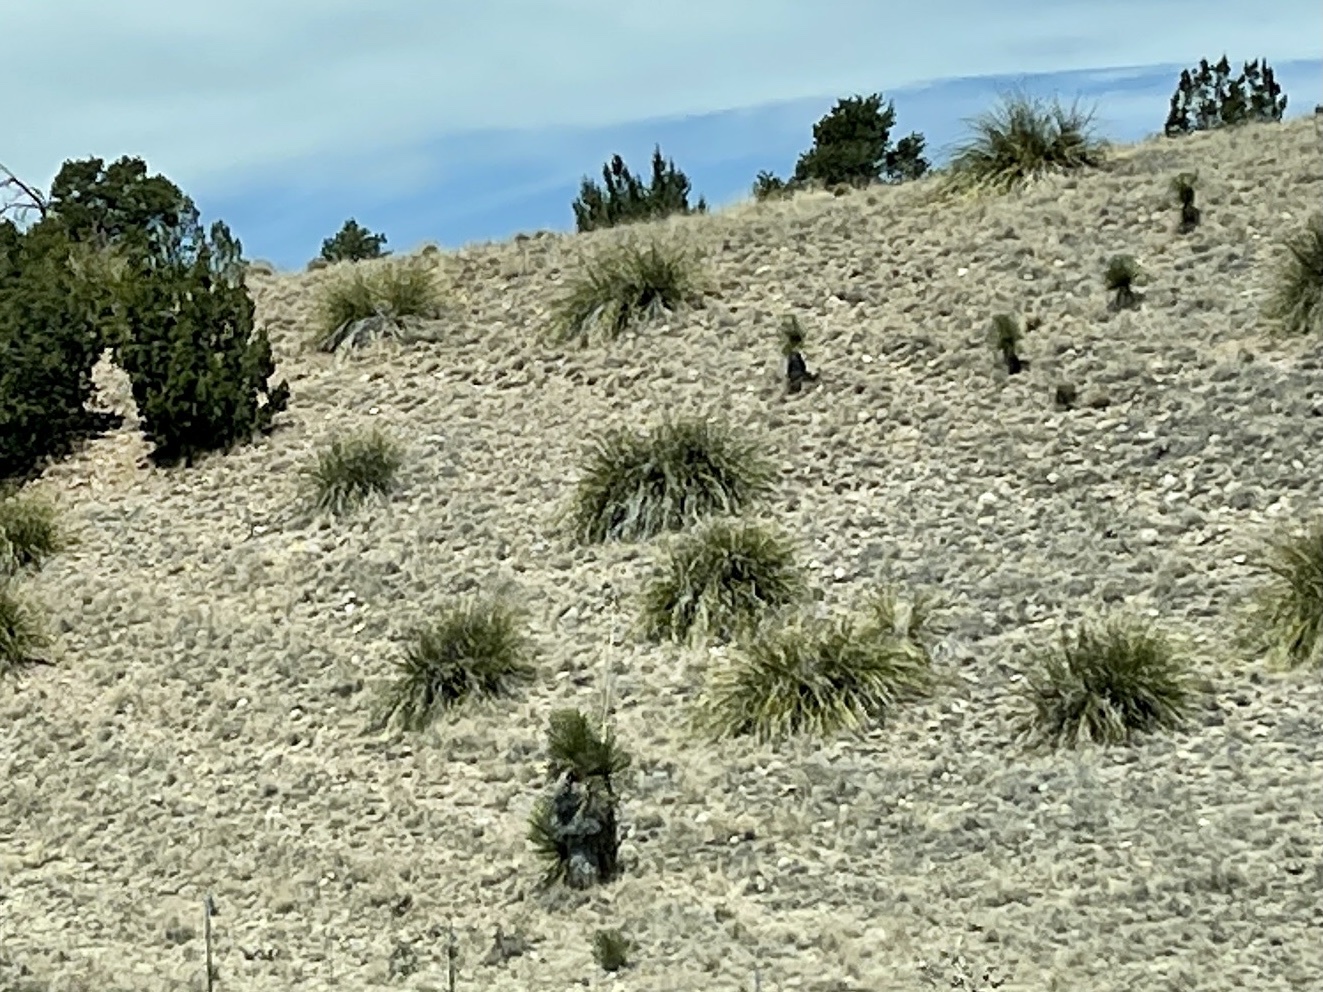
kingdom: Plantae
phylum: Tracheophyta
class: Liliopsida
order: Asparagales
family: Asparagaceae
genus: Yucca
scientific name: Yucca elata
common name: Palmella
